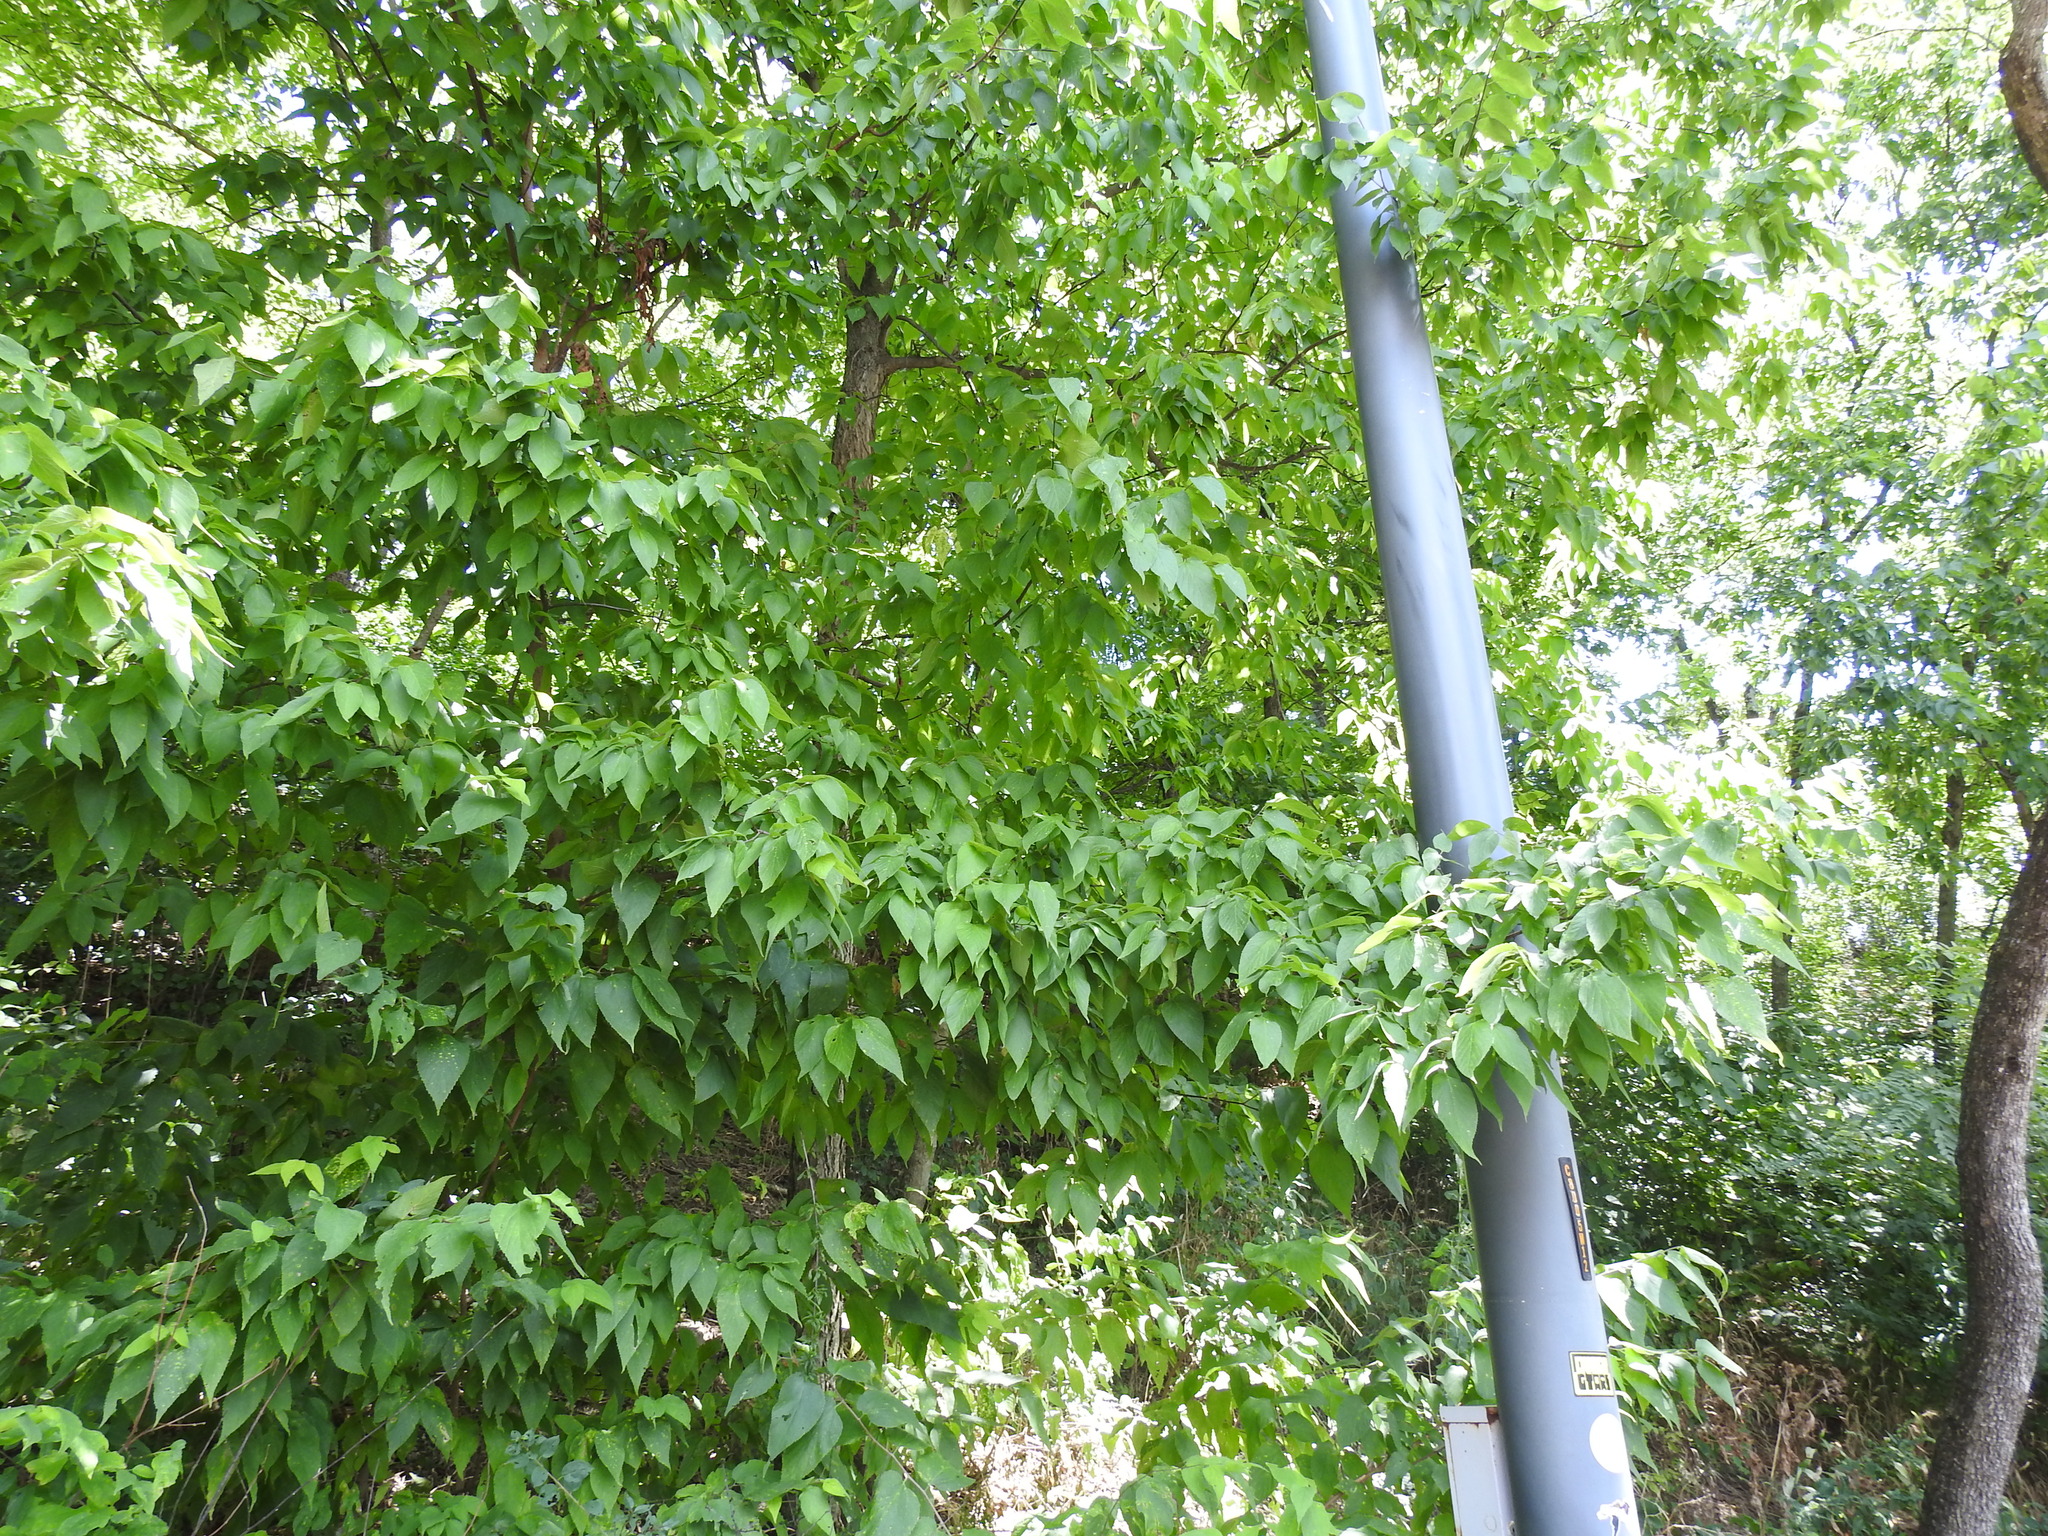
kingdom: Plantae
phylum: Tracheophyta
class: Magnoliopsida
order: Rosales
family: Cannabaceae
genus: Celtis
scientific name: Celtis occidentalis
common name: Common hackberry
